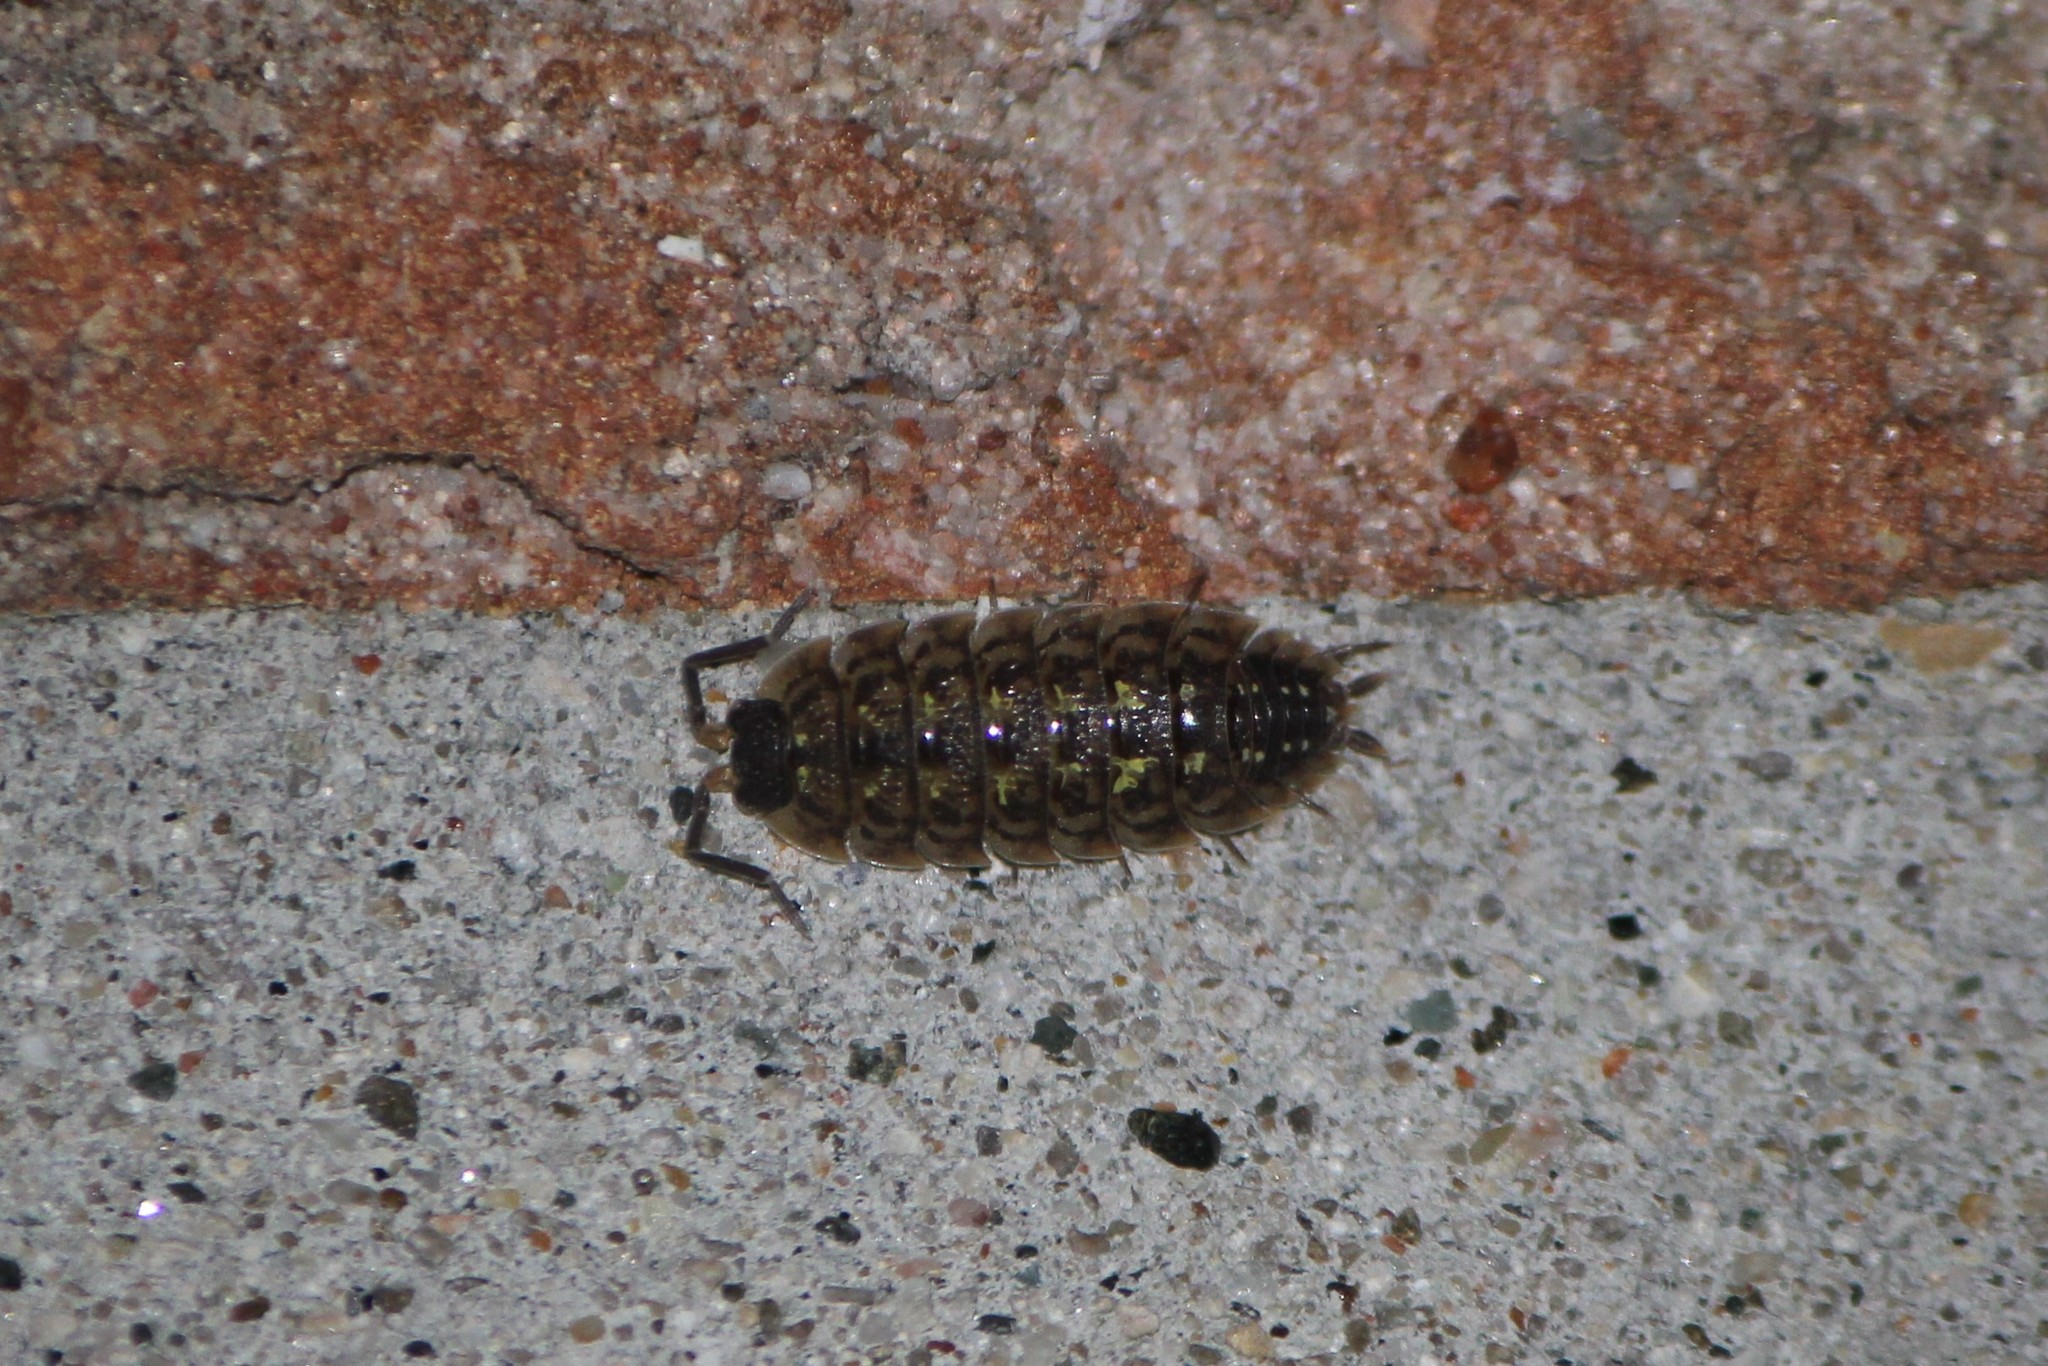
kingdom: Animalia
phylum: Arthropoda
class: Malacostraca
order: Isopoda
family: Porcellionidae
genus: Porcellio
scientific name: Porcellio spinicornis
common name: Painted woodlouse
